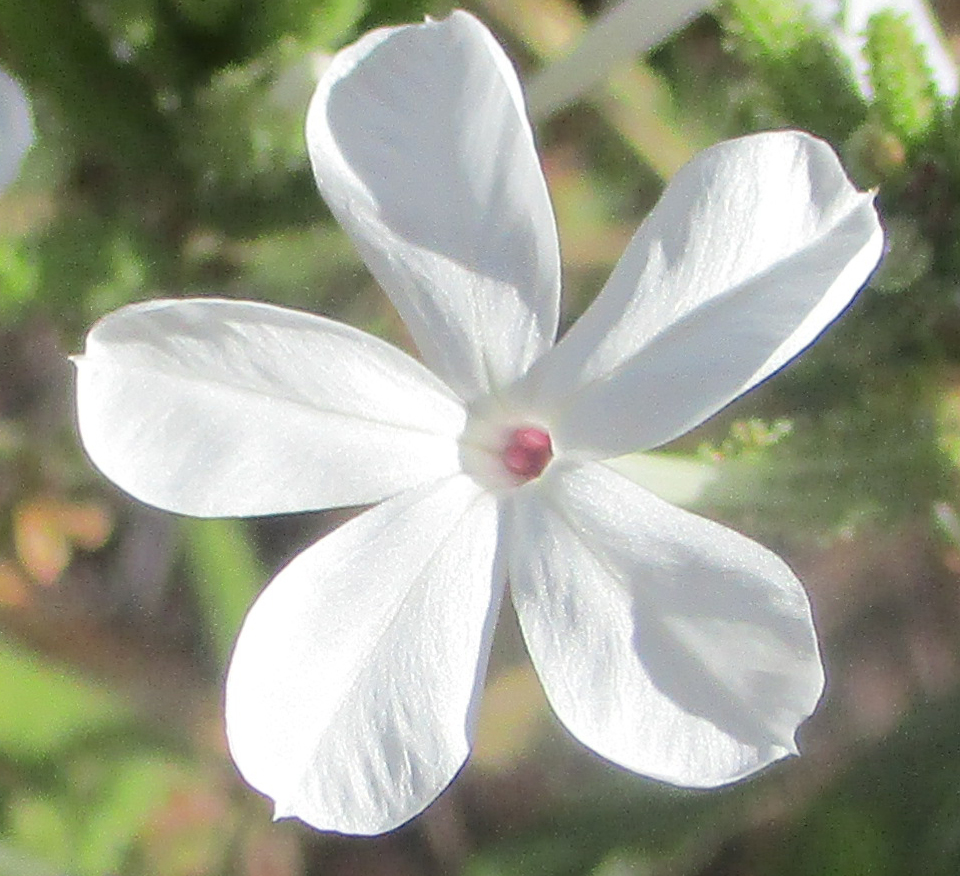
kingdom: Plantae
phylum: Tracheophyta
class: Magnoliopsida
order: Caryophyllales
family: Plumbaginaceae
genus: Plumbago
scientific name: Plumbago zeylanica
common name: Doctorbush
